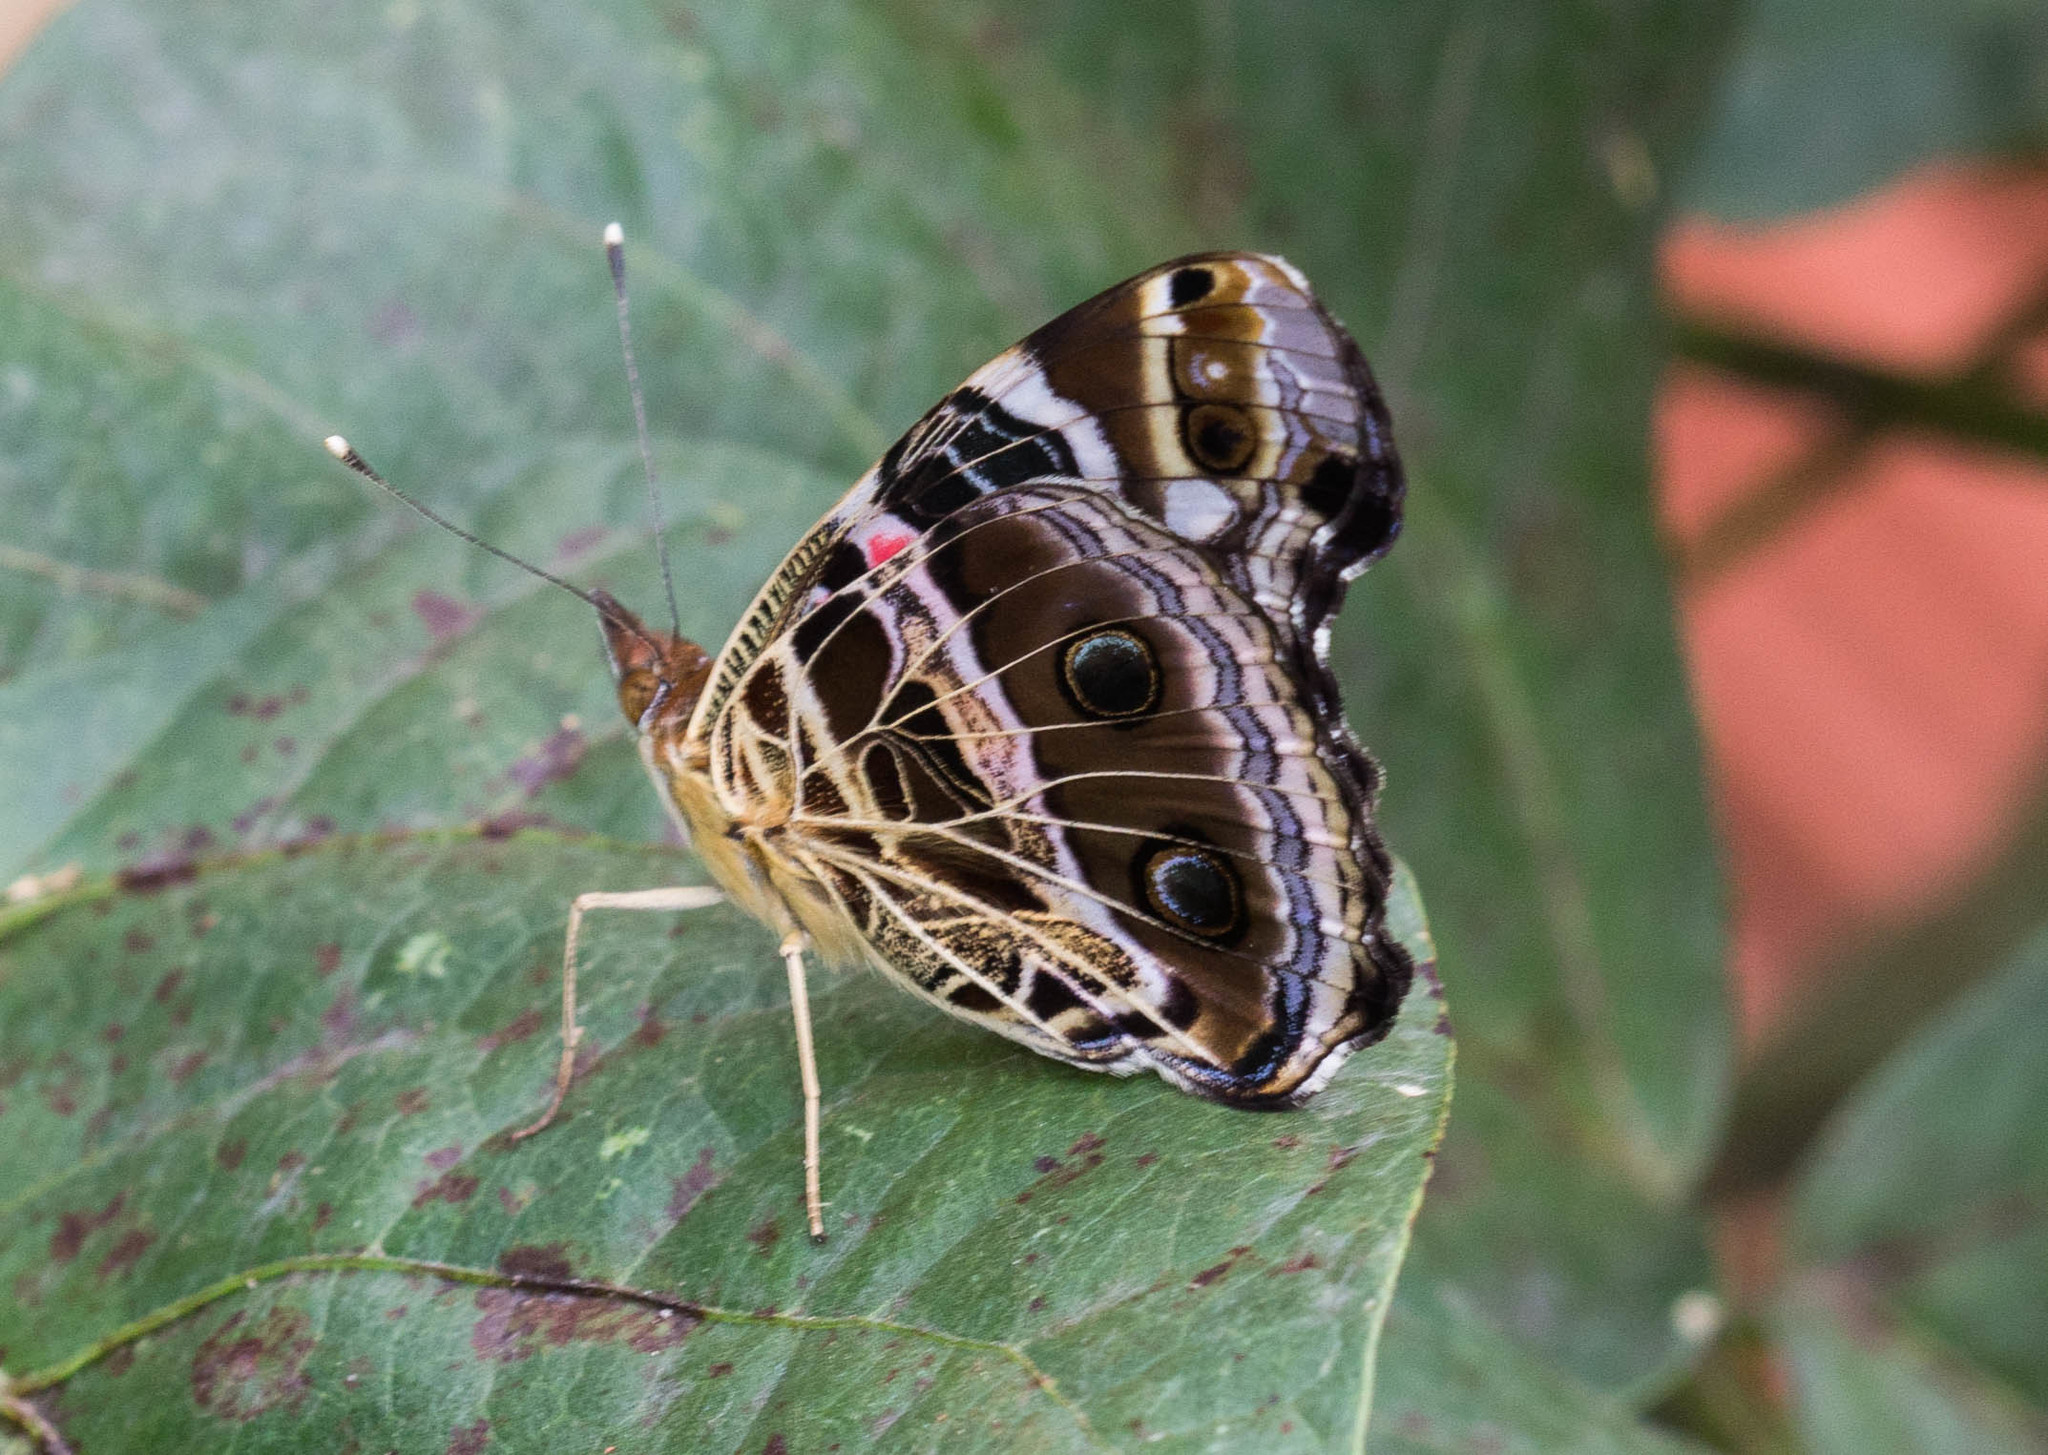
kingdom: Animalia
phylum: Arthropoda
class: Insecta
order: Lepidoptera
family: Nymphalidae
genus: Vanessa
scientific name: Vanessa myrinna
